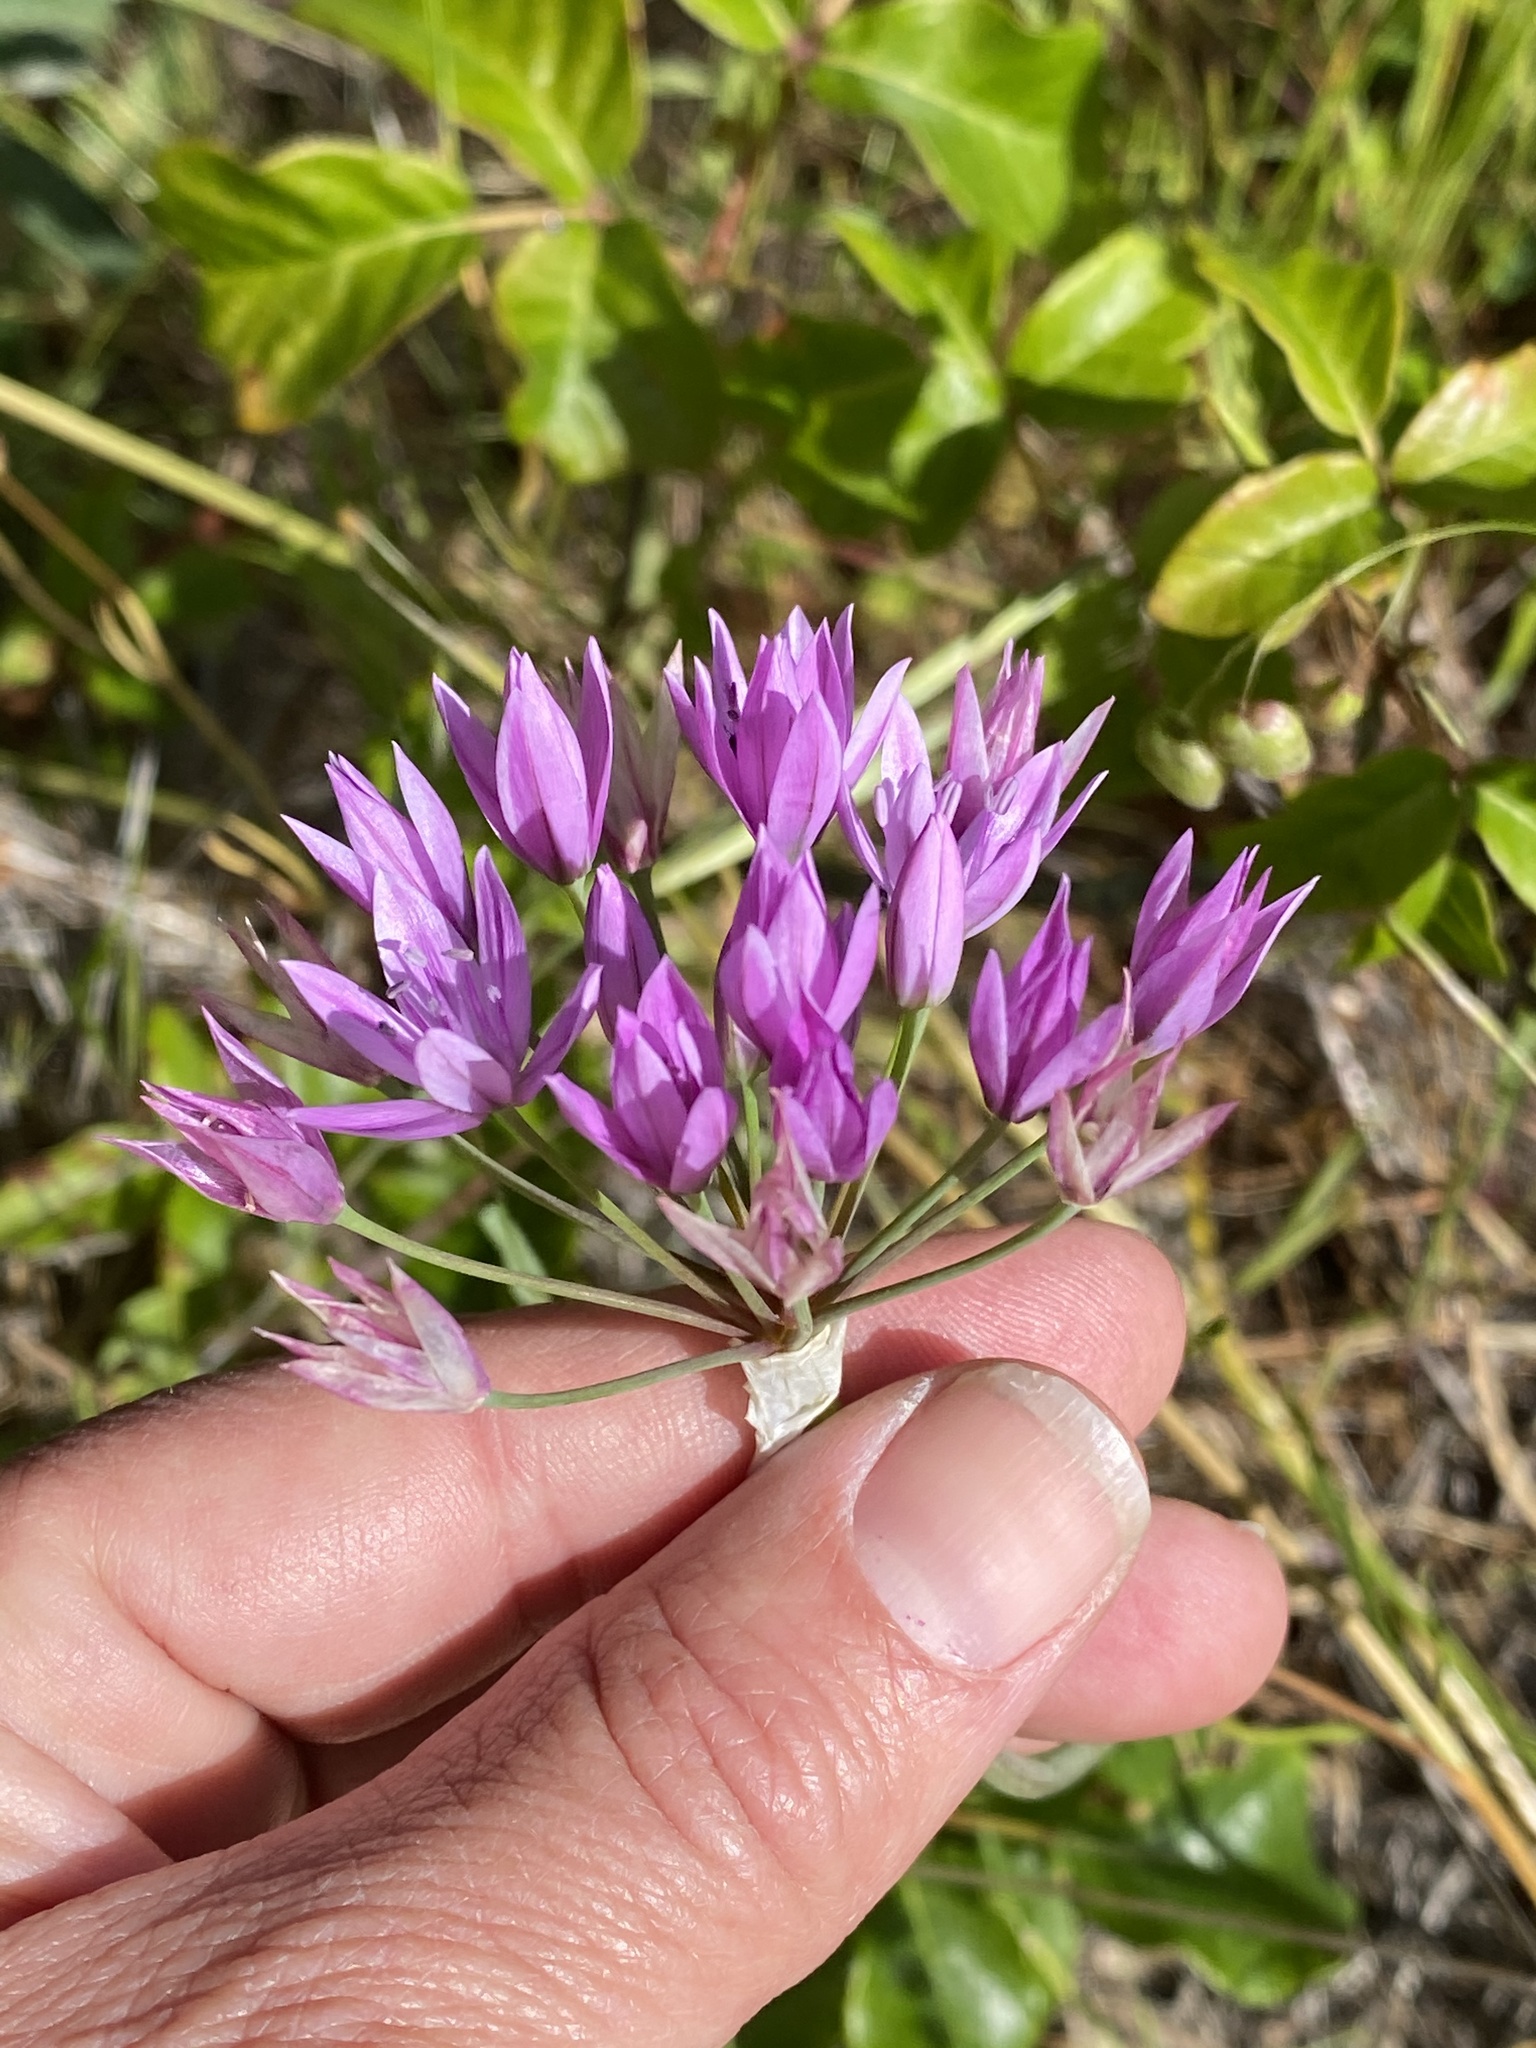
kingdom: Plantae
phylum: Tracheophyta
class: Liliopsida
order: Asparagales
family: Amaryllidaceae
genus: Allium
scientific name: Allium unifolium
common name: American garlic
